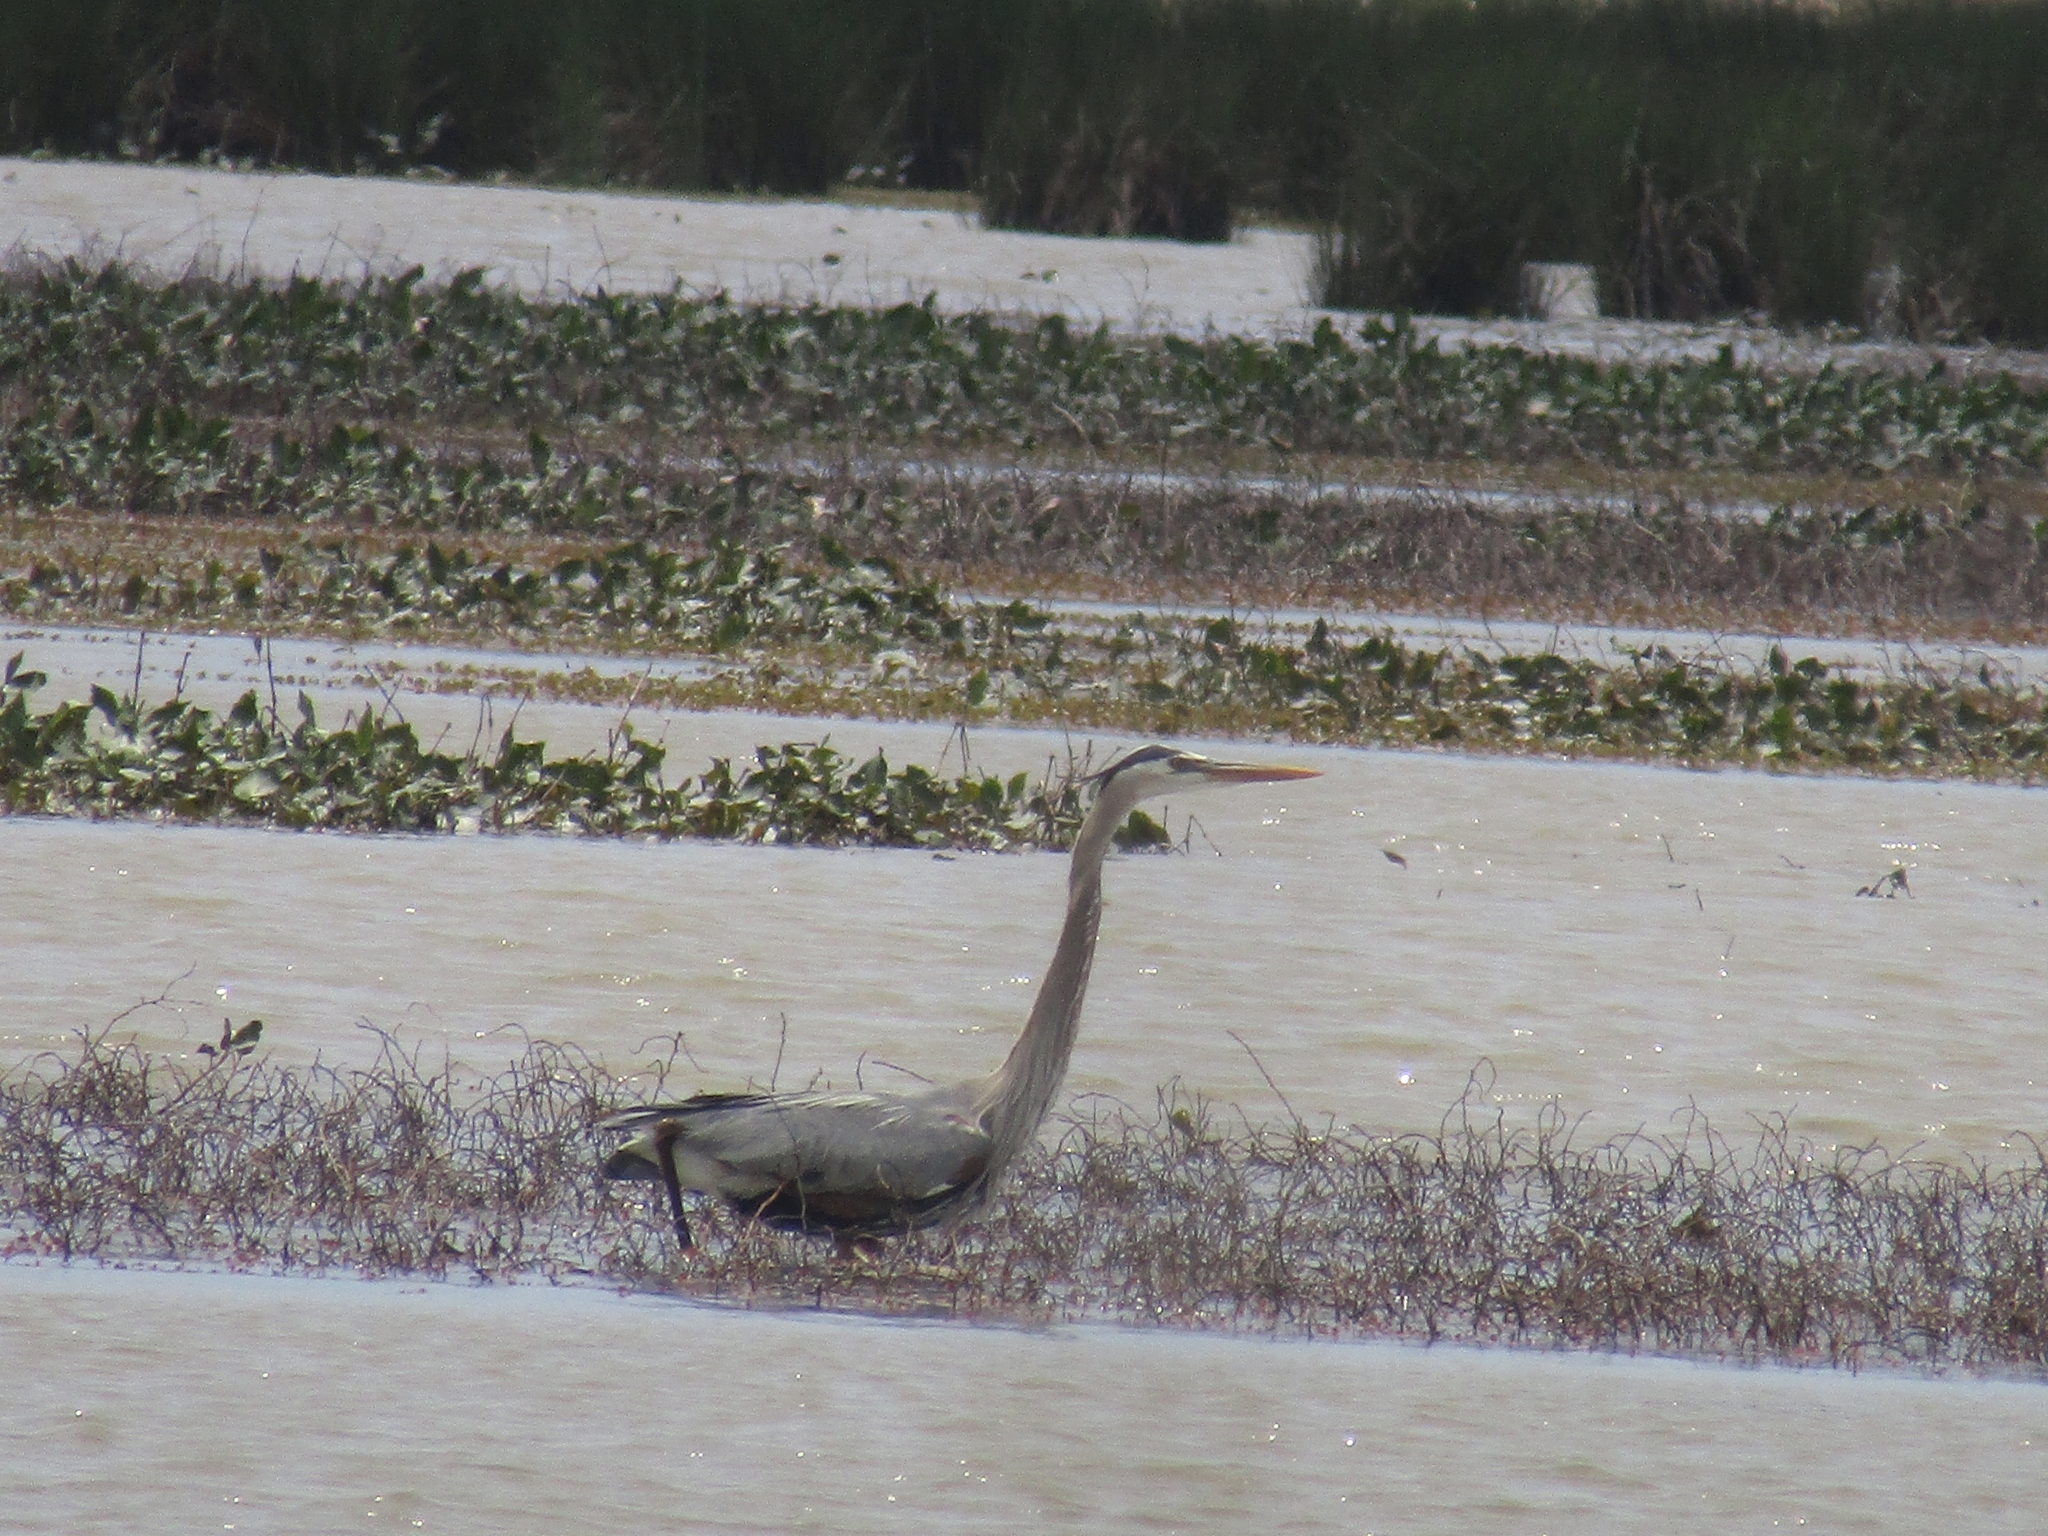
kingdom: Animalia
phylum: Chordata
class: Aves
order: Pelecaniformes
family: Ardeidae
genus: Ardea
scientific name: Ardea herodias
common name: Great blue heron
